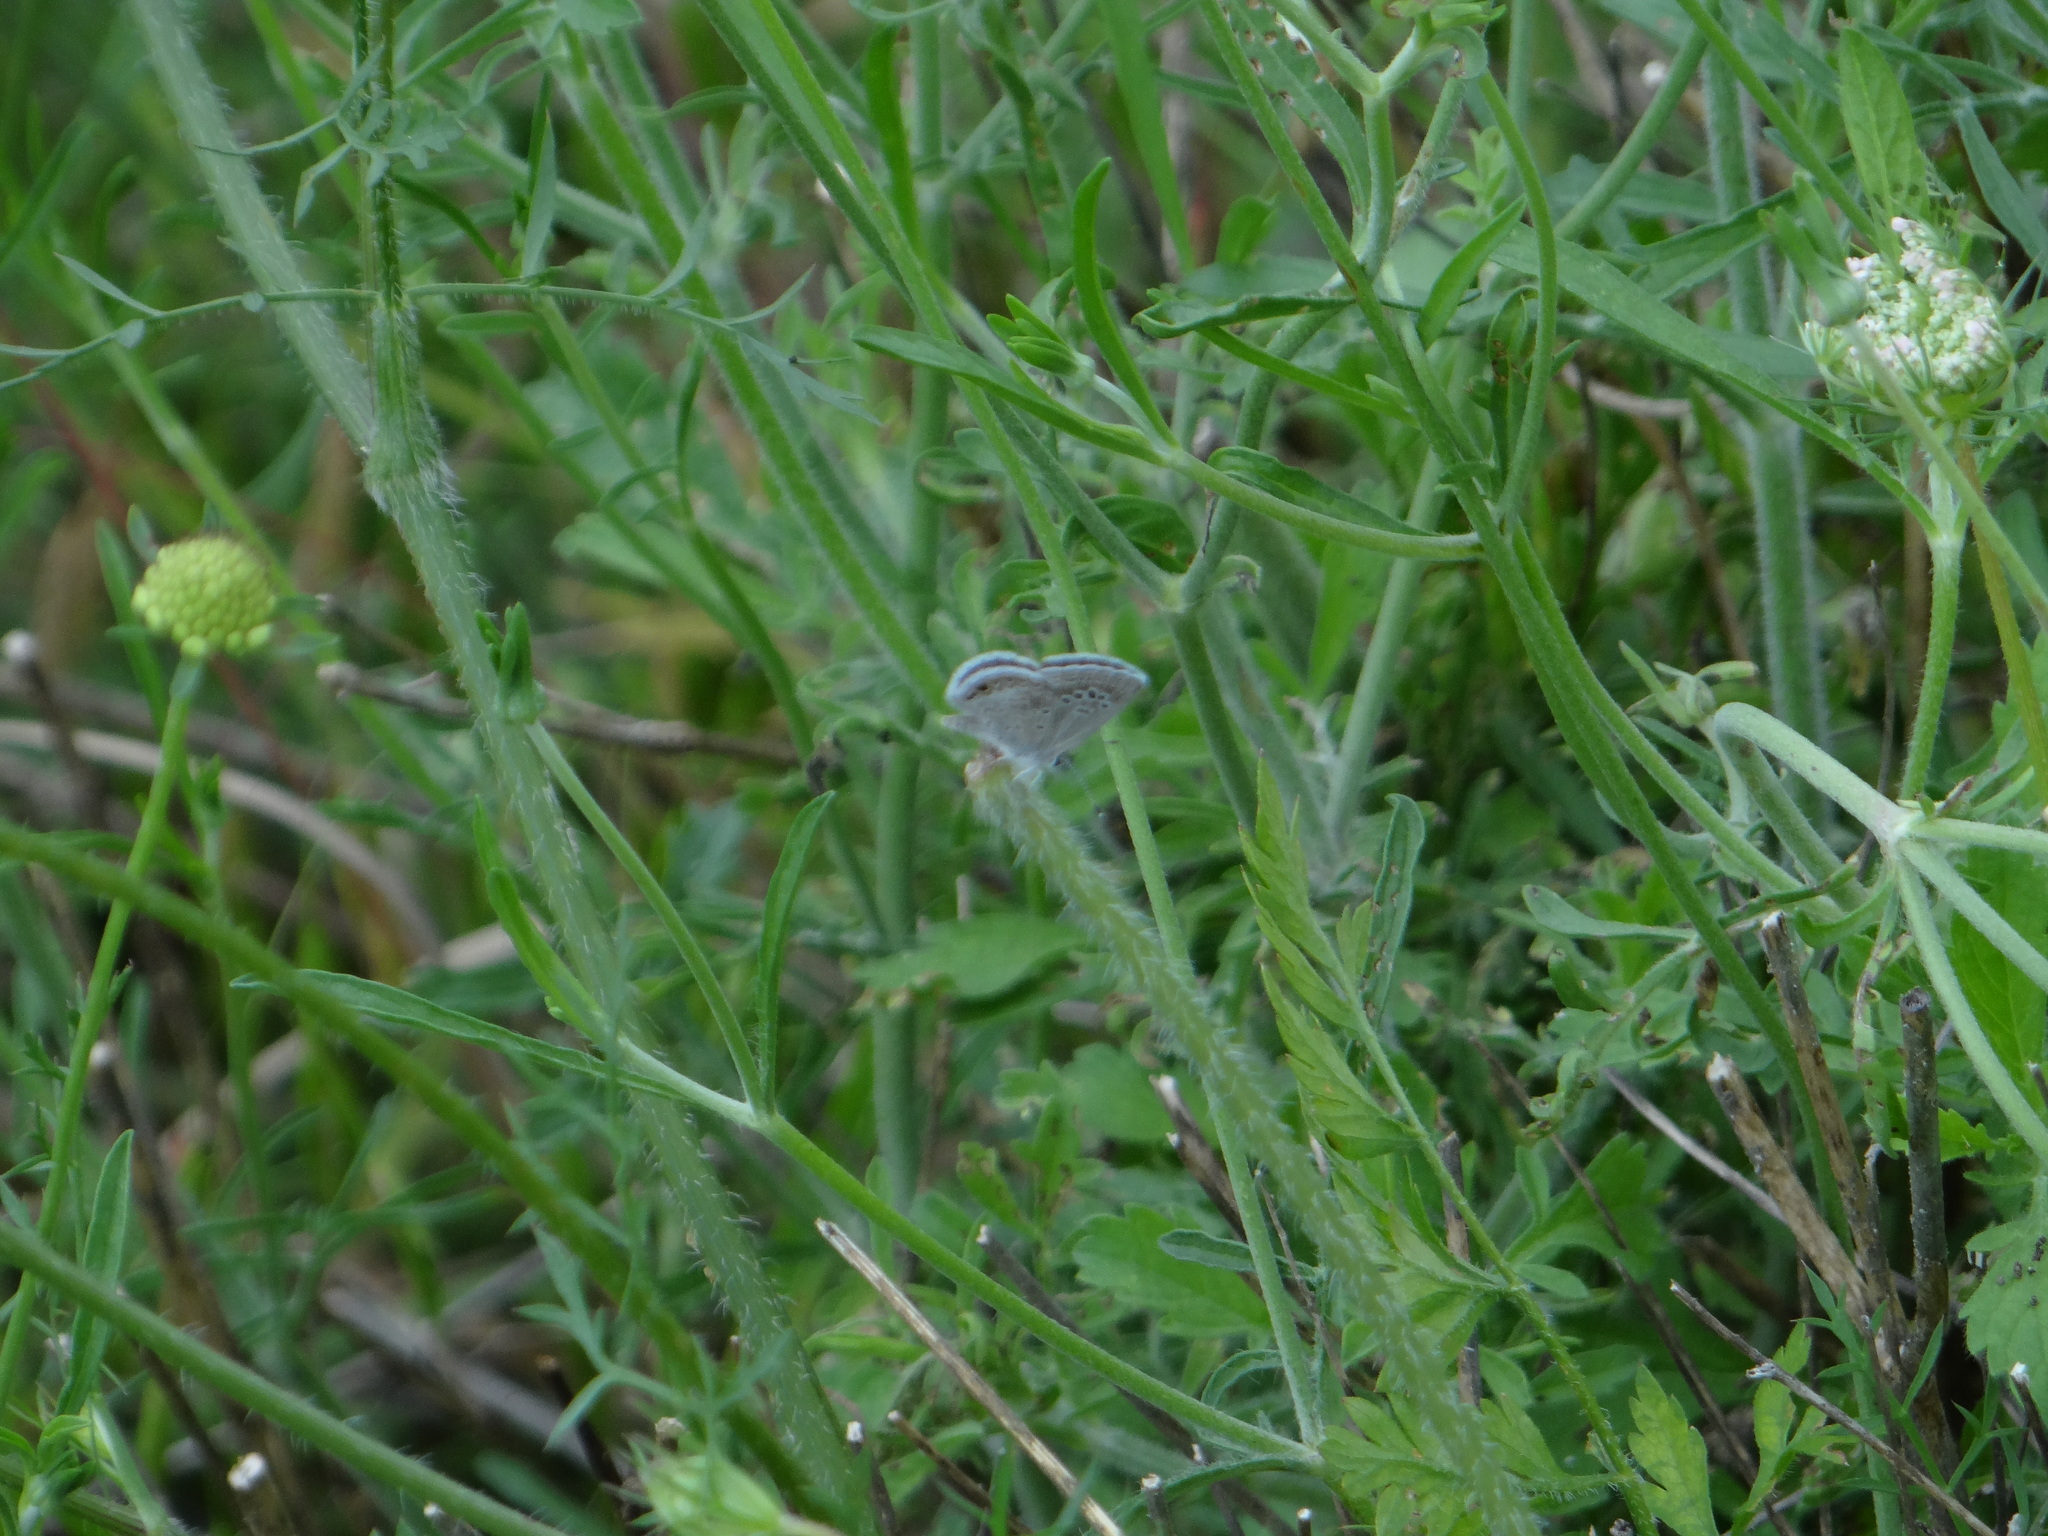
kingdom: Animalia
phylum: Arthropoda
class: Insecta
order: Lepidoptera
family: Lycaenidae
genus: Echinargus
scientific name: Echinargus isola
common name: Reakirt's blue
